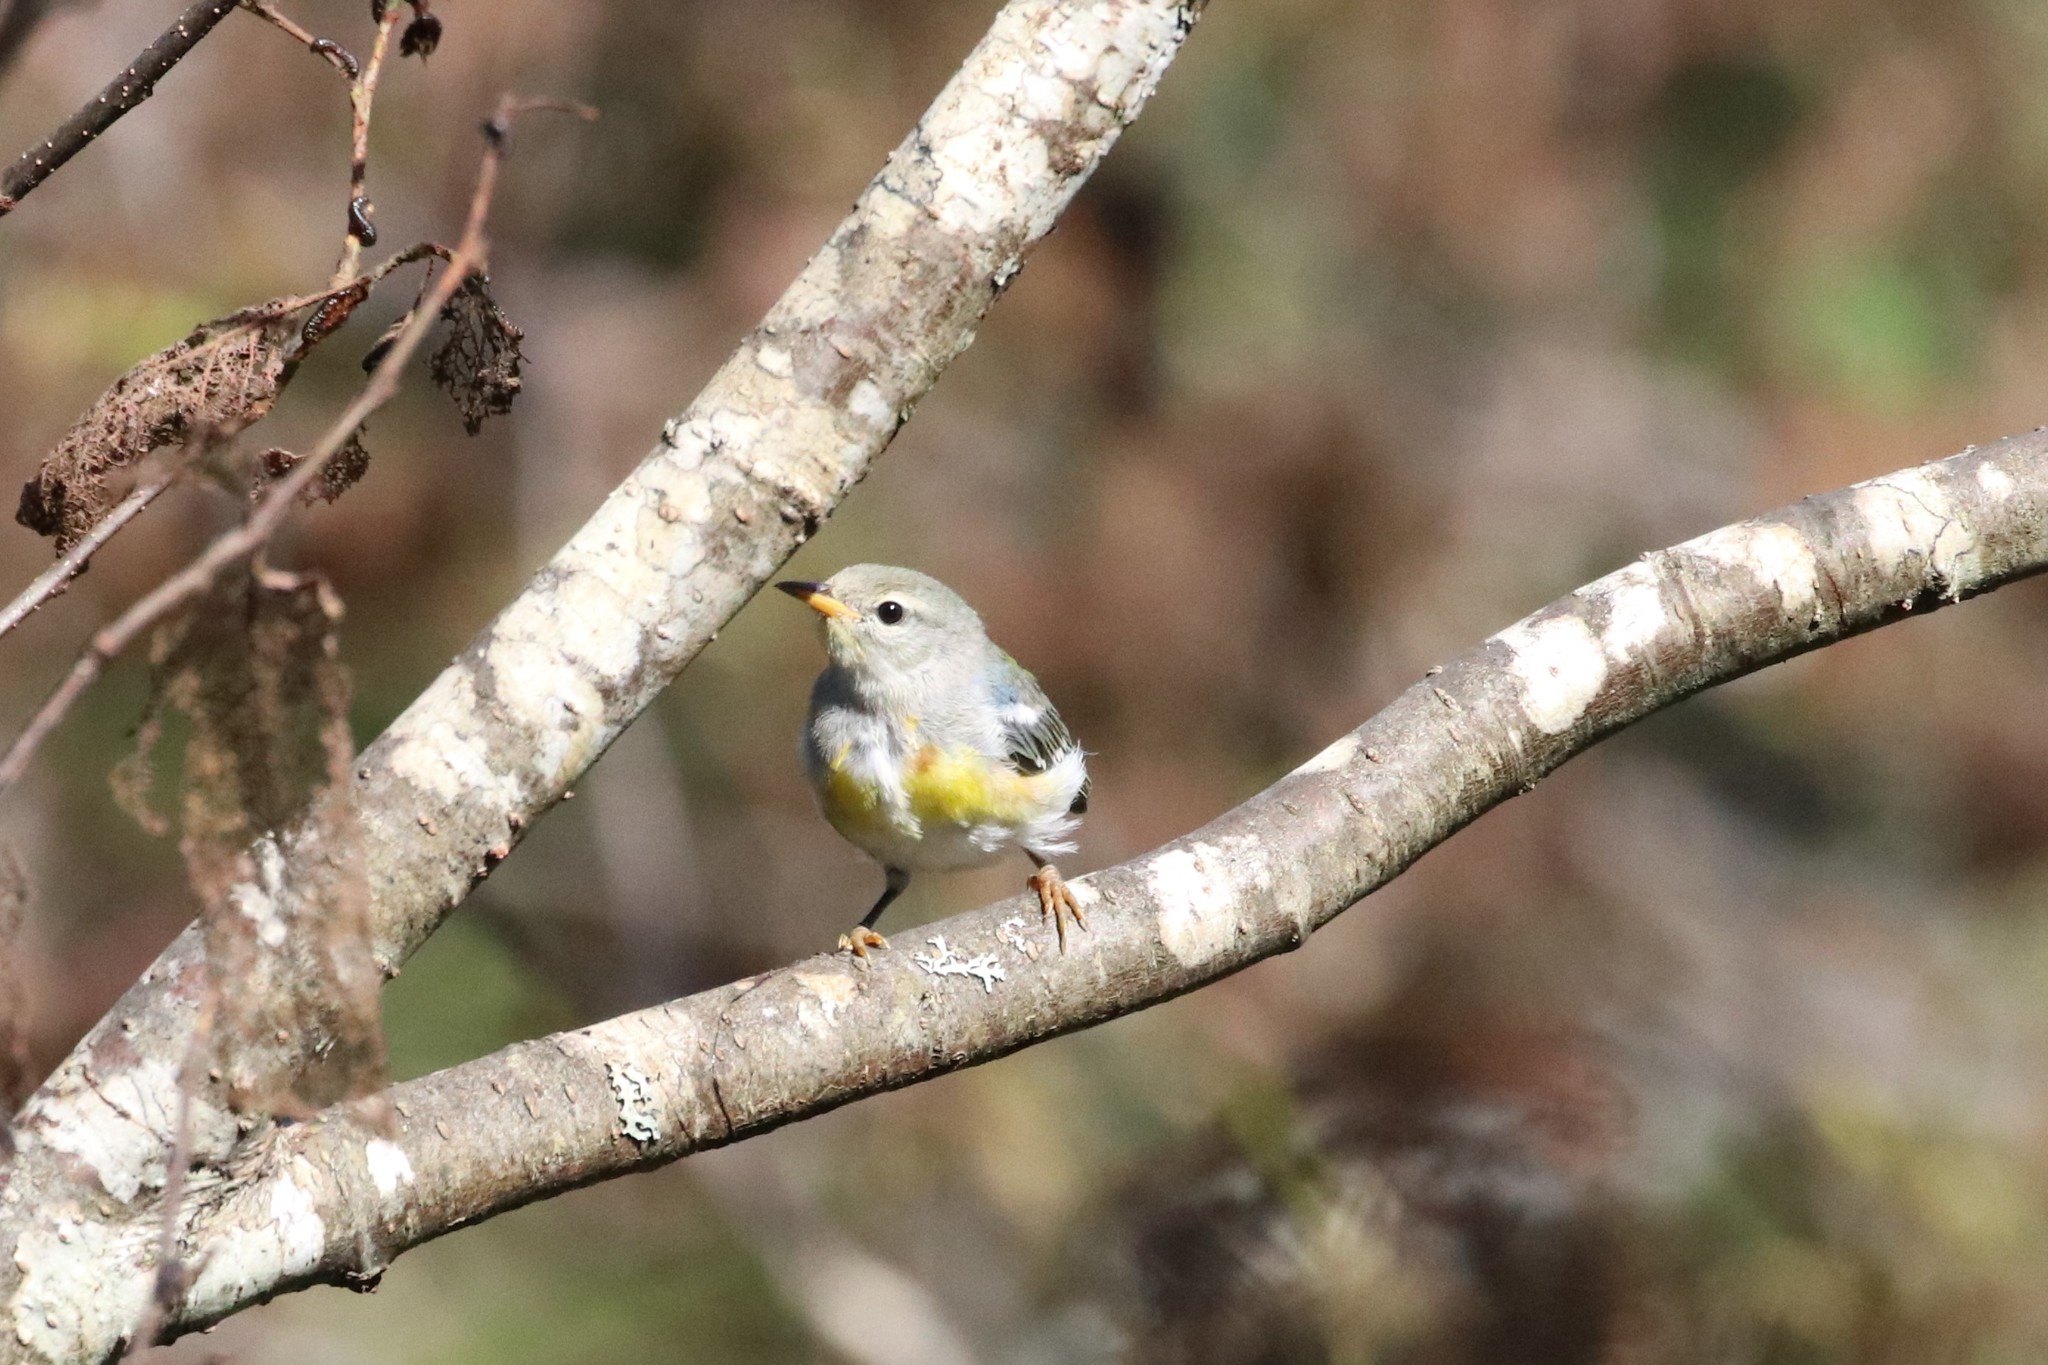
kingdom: Animalia
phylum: Chordata
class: Aves
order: Passeriformes
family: Parulidae
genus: Setophaga
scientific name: Setophaga americana
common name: Northern parula
